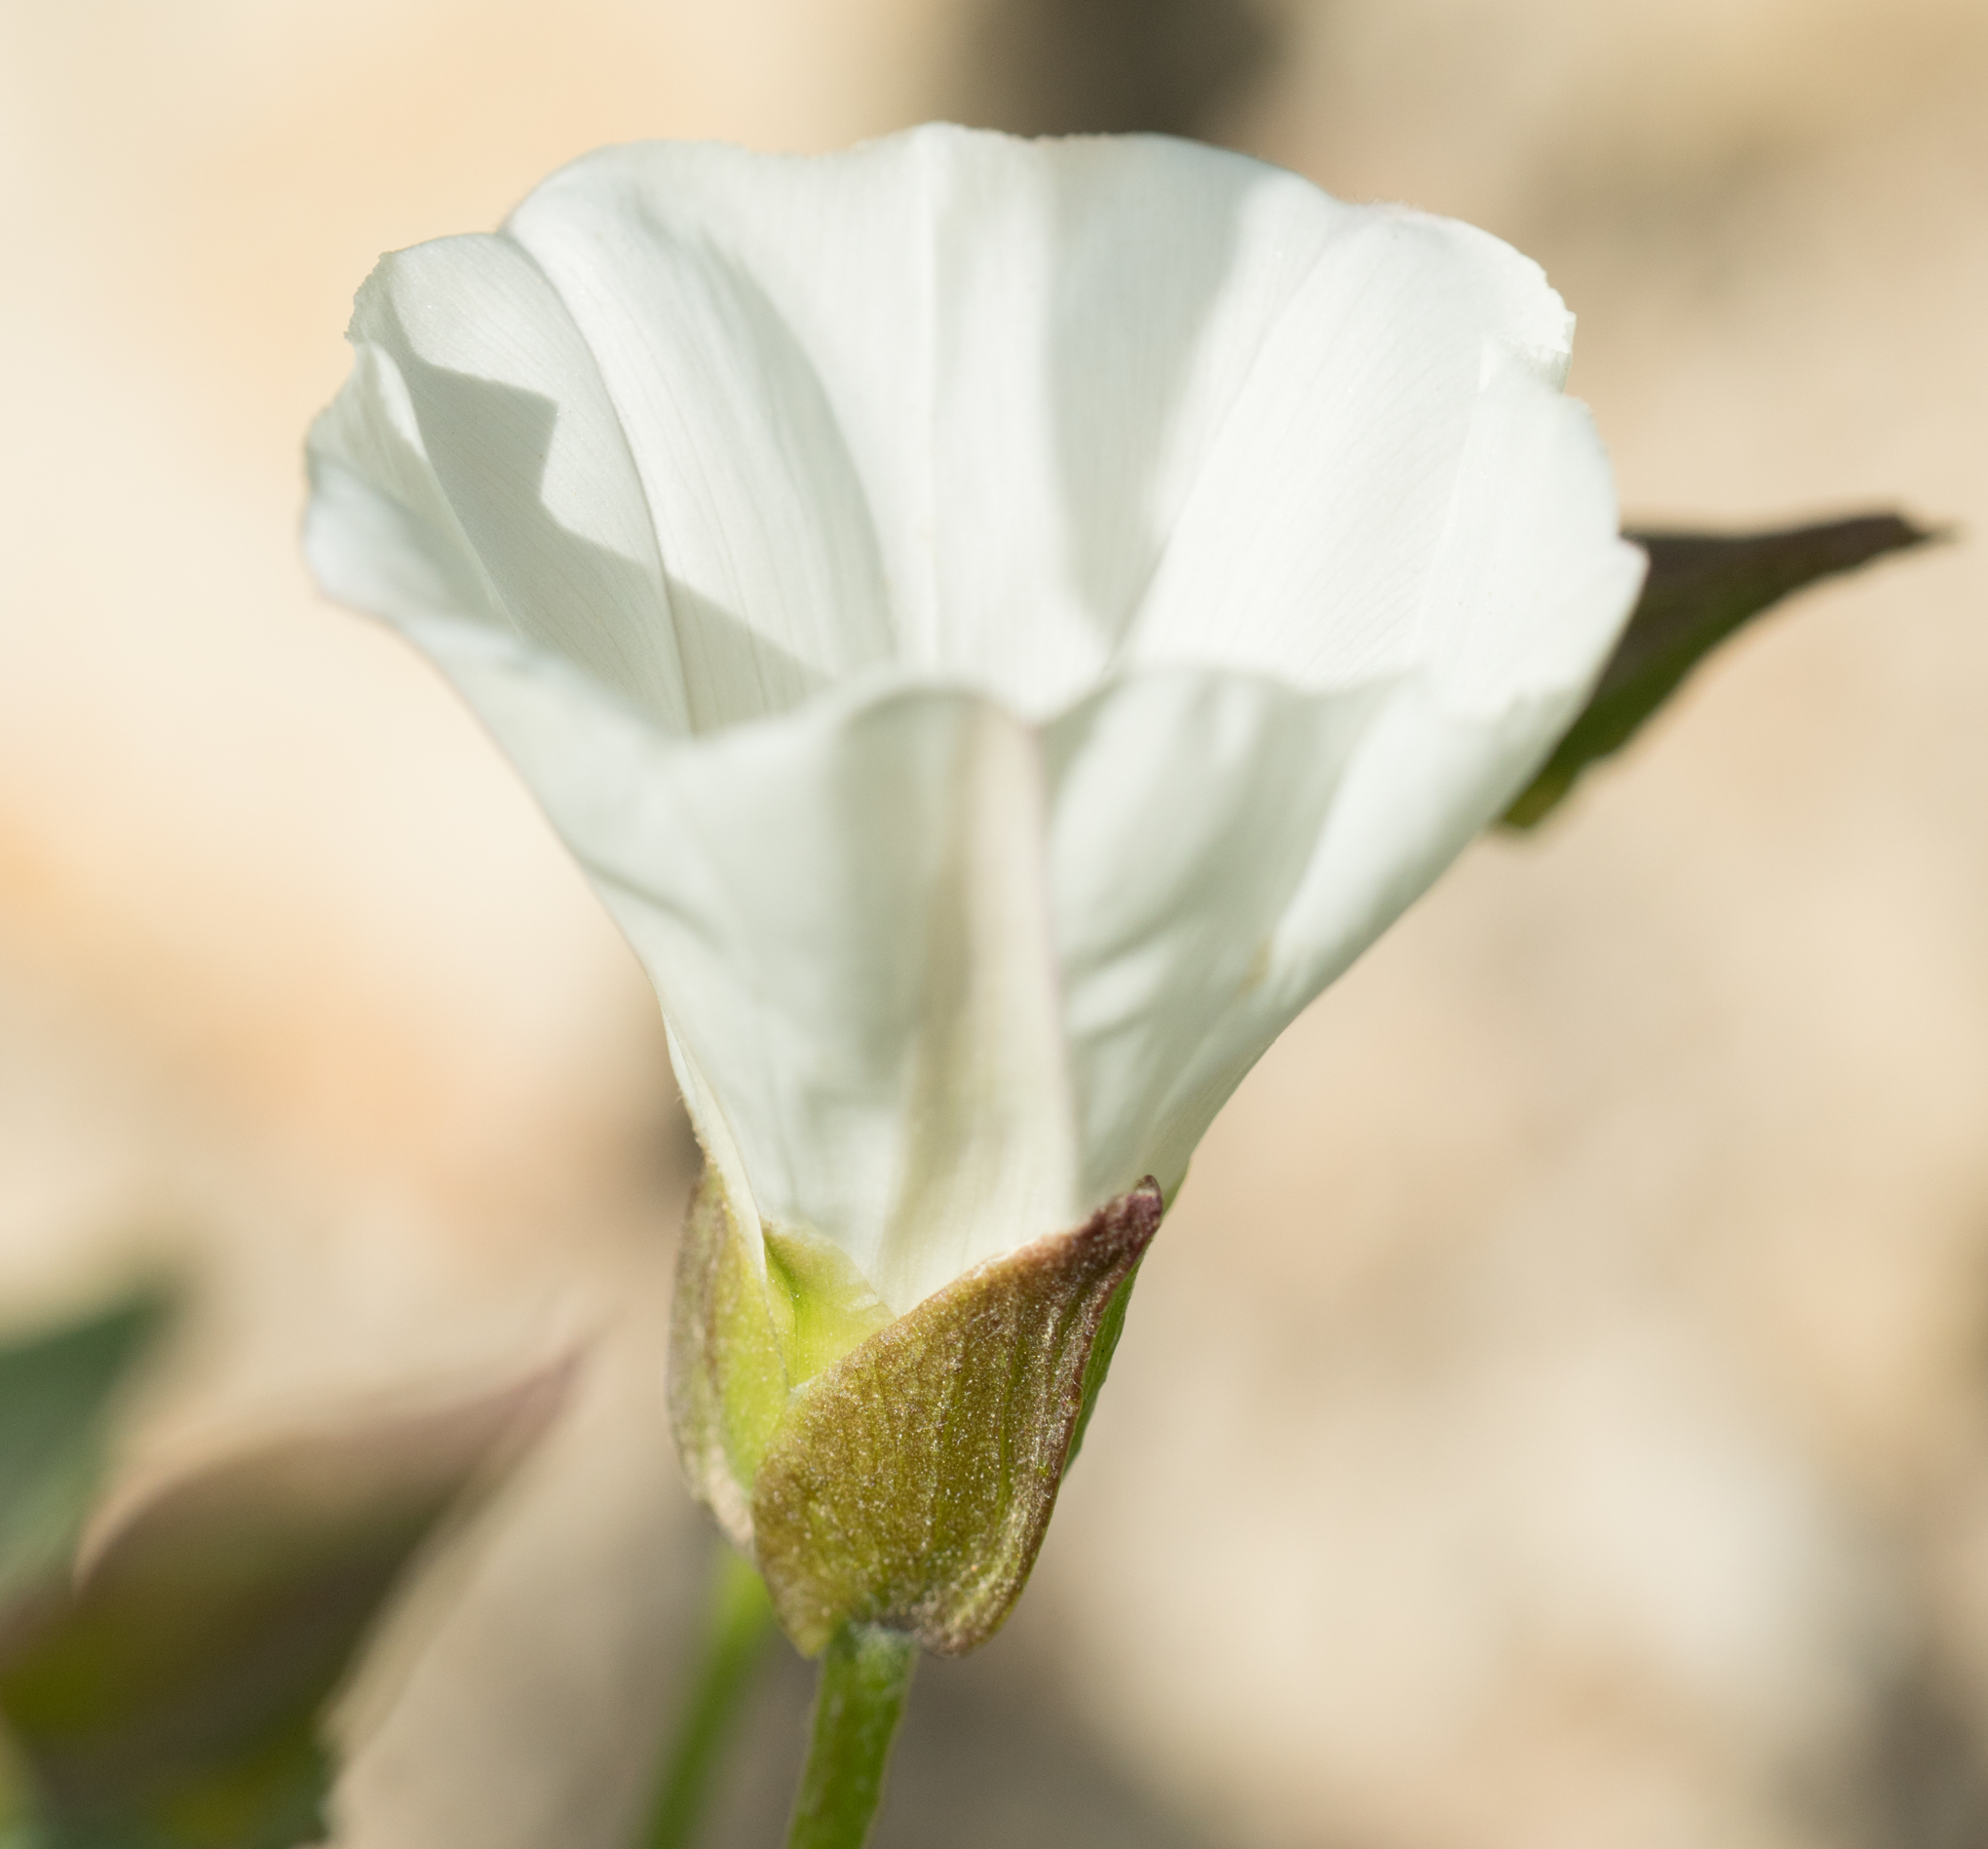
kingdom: Plantae
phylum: Tracheophyta
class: Magnoliopsida
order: Solanales
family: Convolvulaceae
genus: Calystegia
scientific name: Calystegia macrostegia
